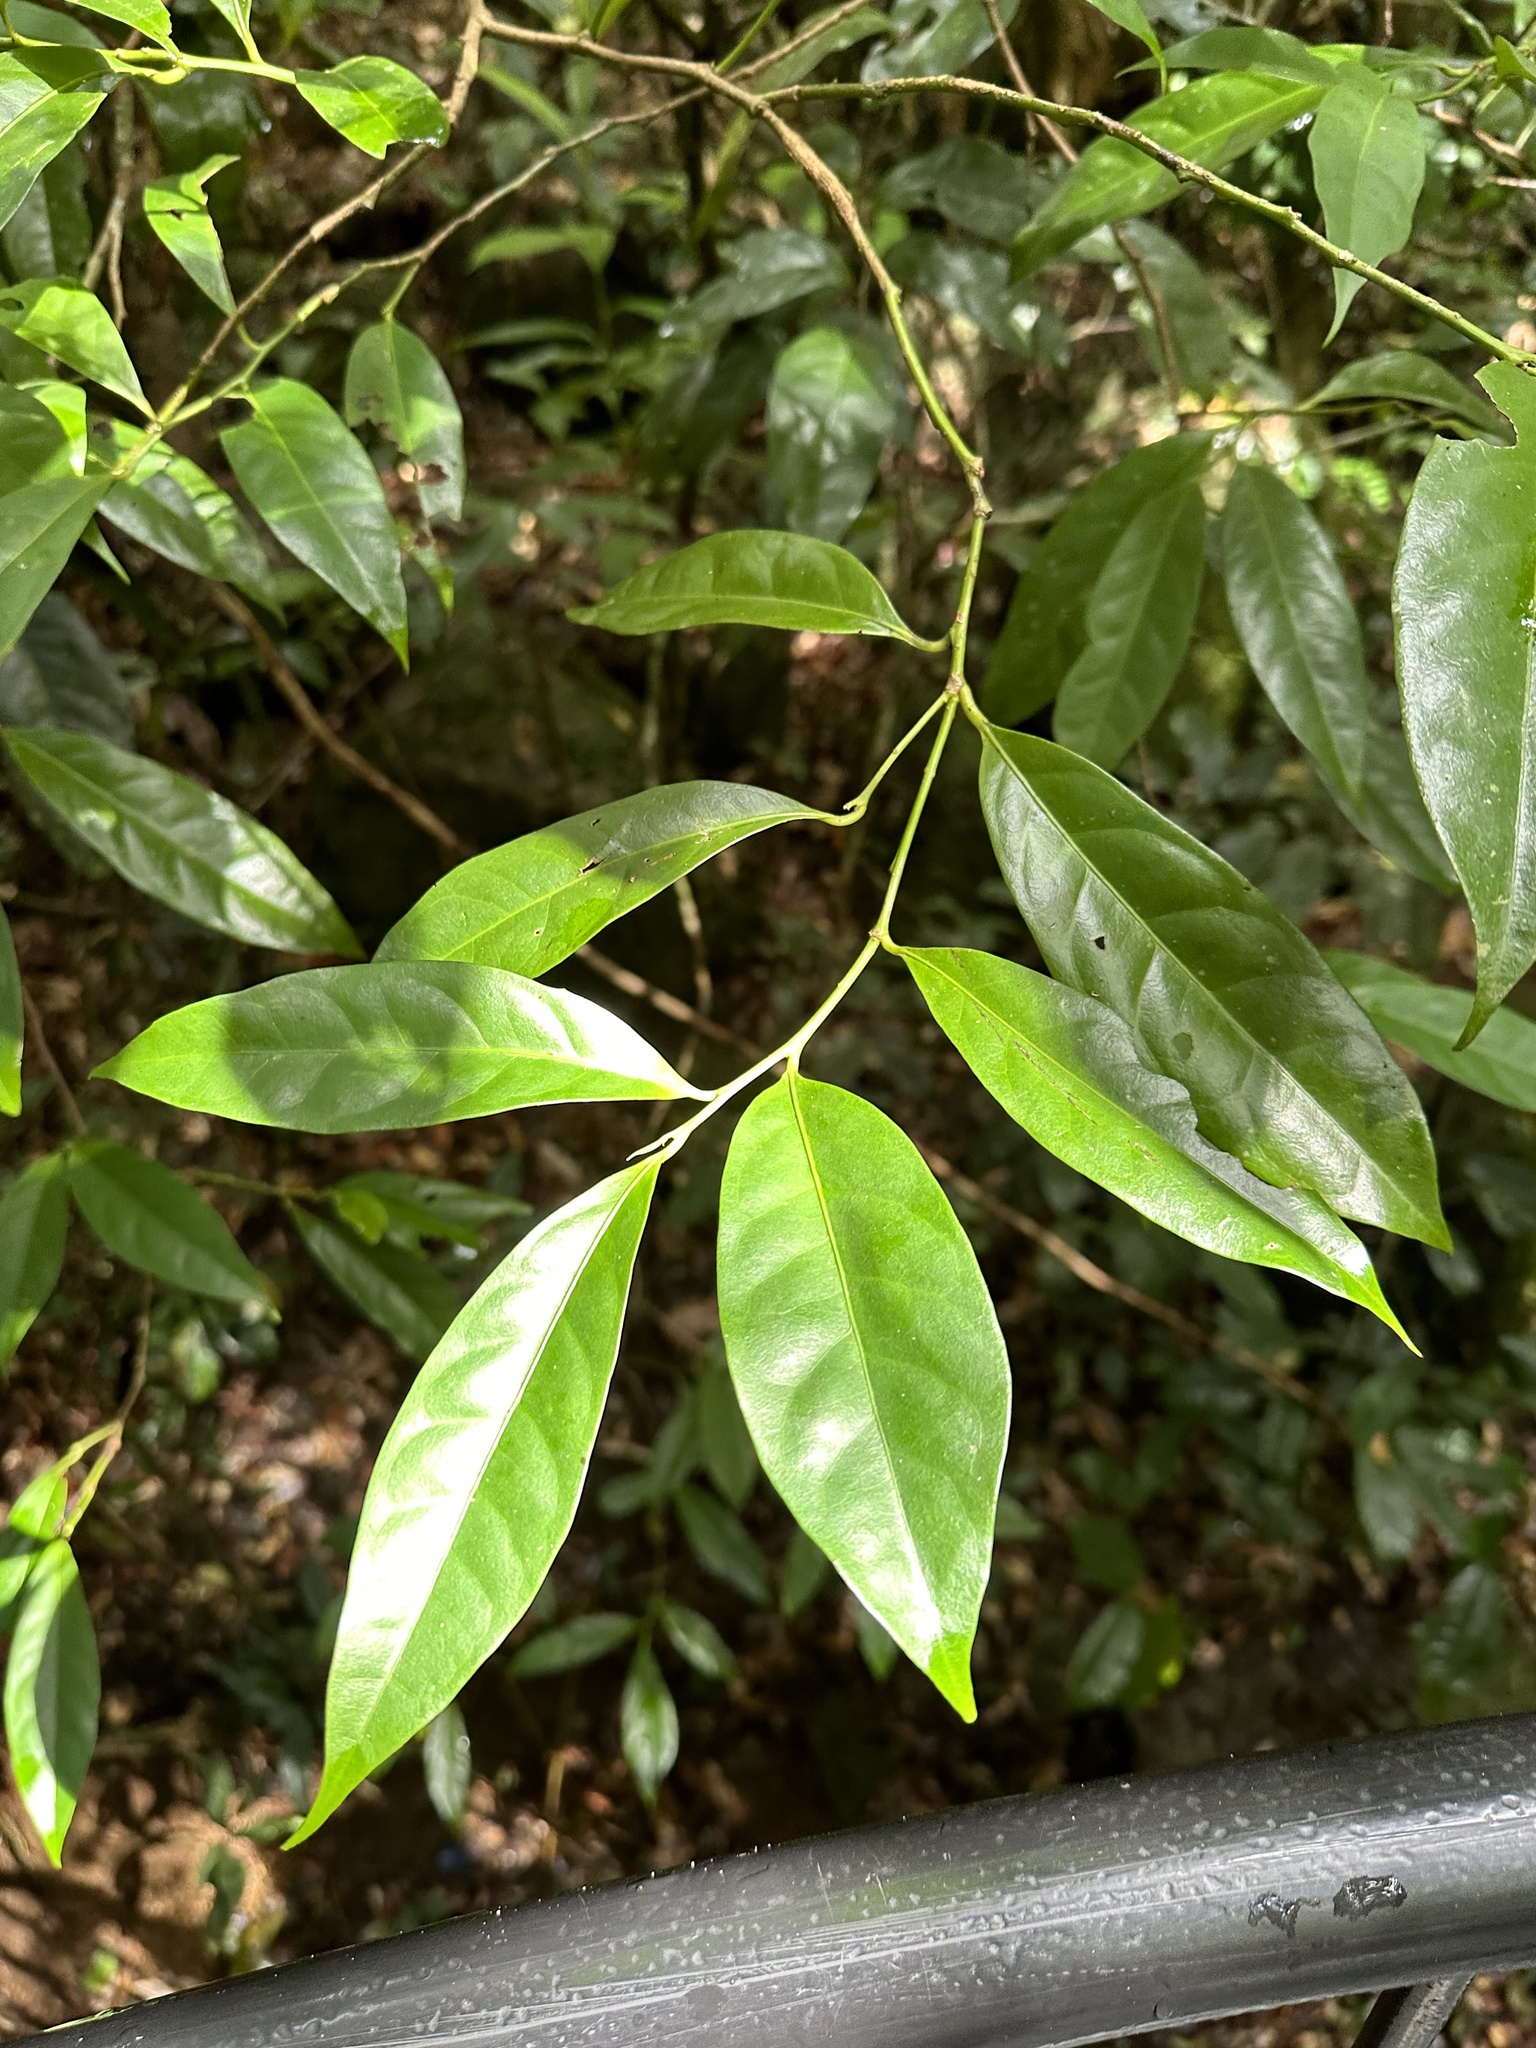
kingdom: Plantae
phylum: Tracheophyta
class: Magnoliopsida
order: Laurales
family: Hernandiaceae
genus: Hernandia
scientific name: Hernandia albiflora
